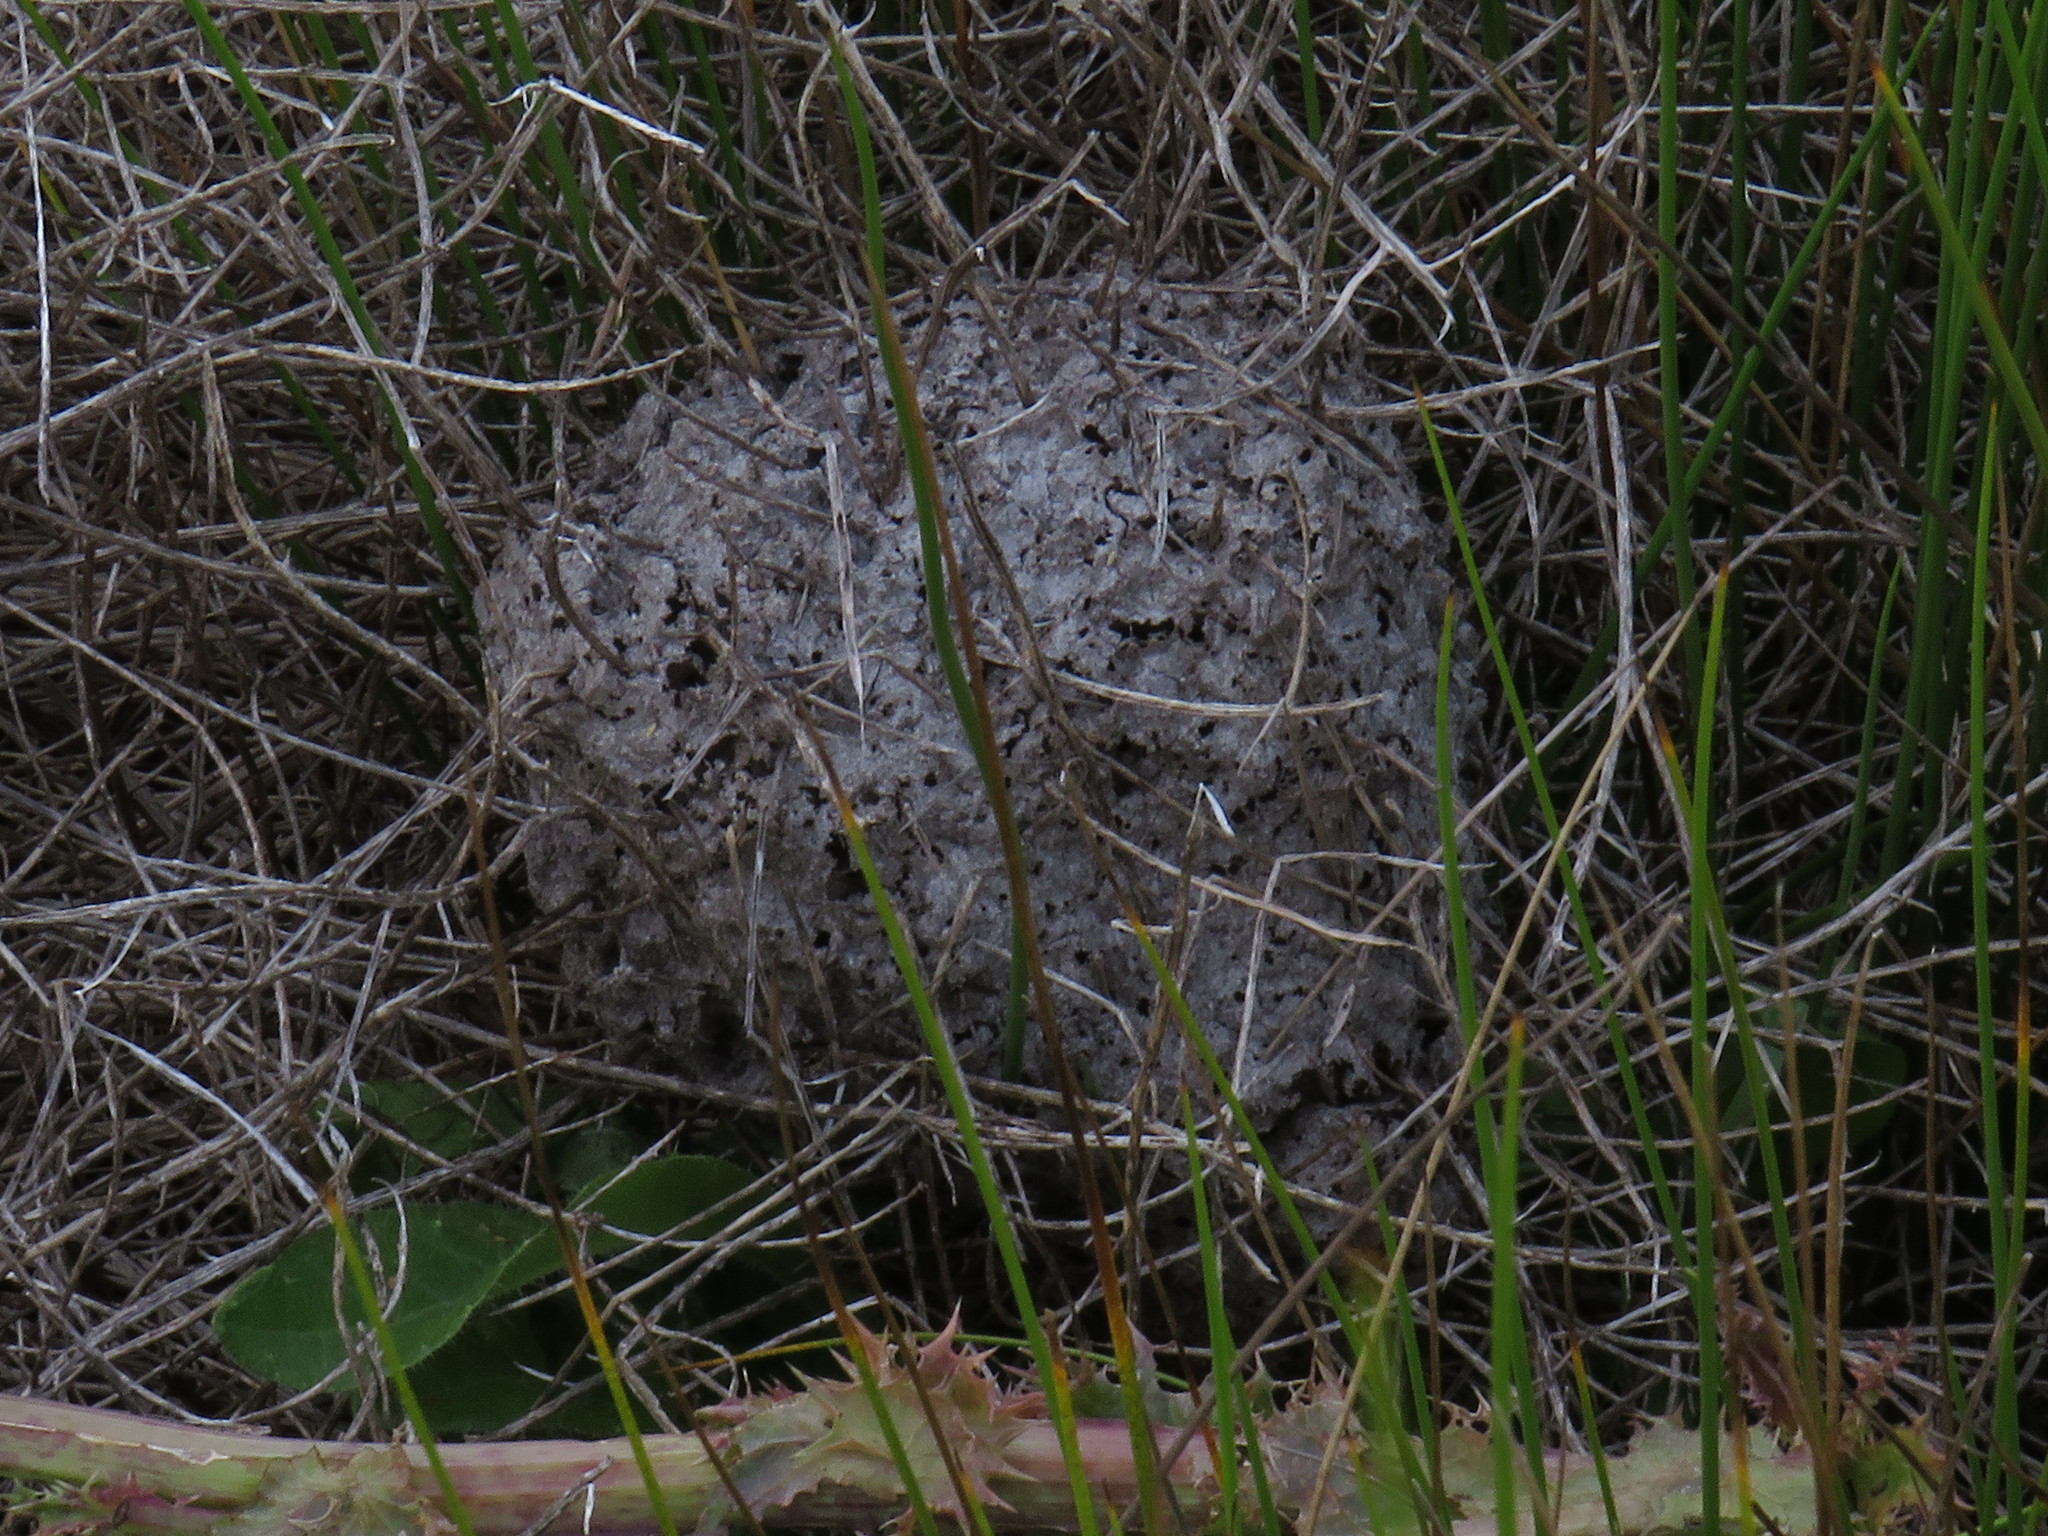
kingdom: Animalia
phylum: Arthropoda
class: Insecta
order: Hymenoptera
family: Formicidae
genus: Crematogaster
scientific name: Crematogaster peringueyi
